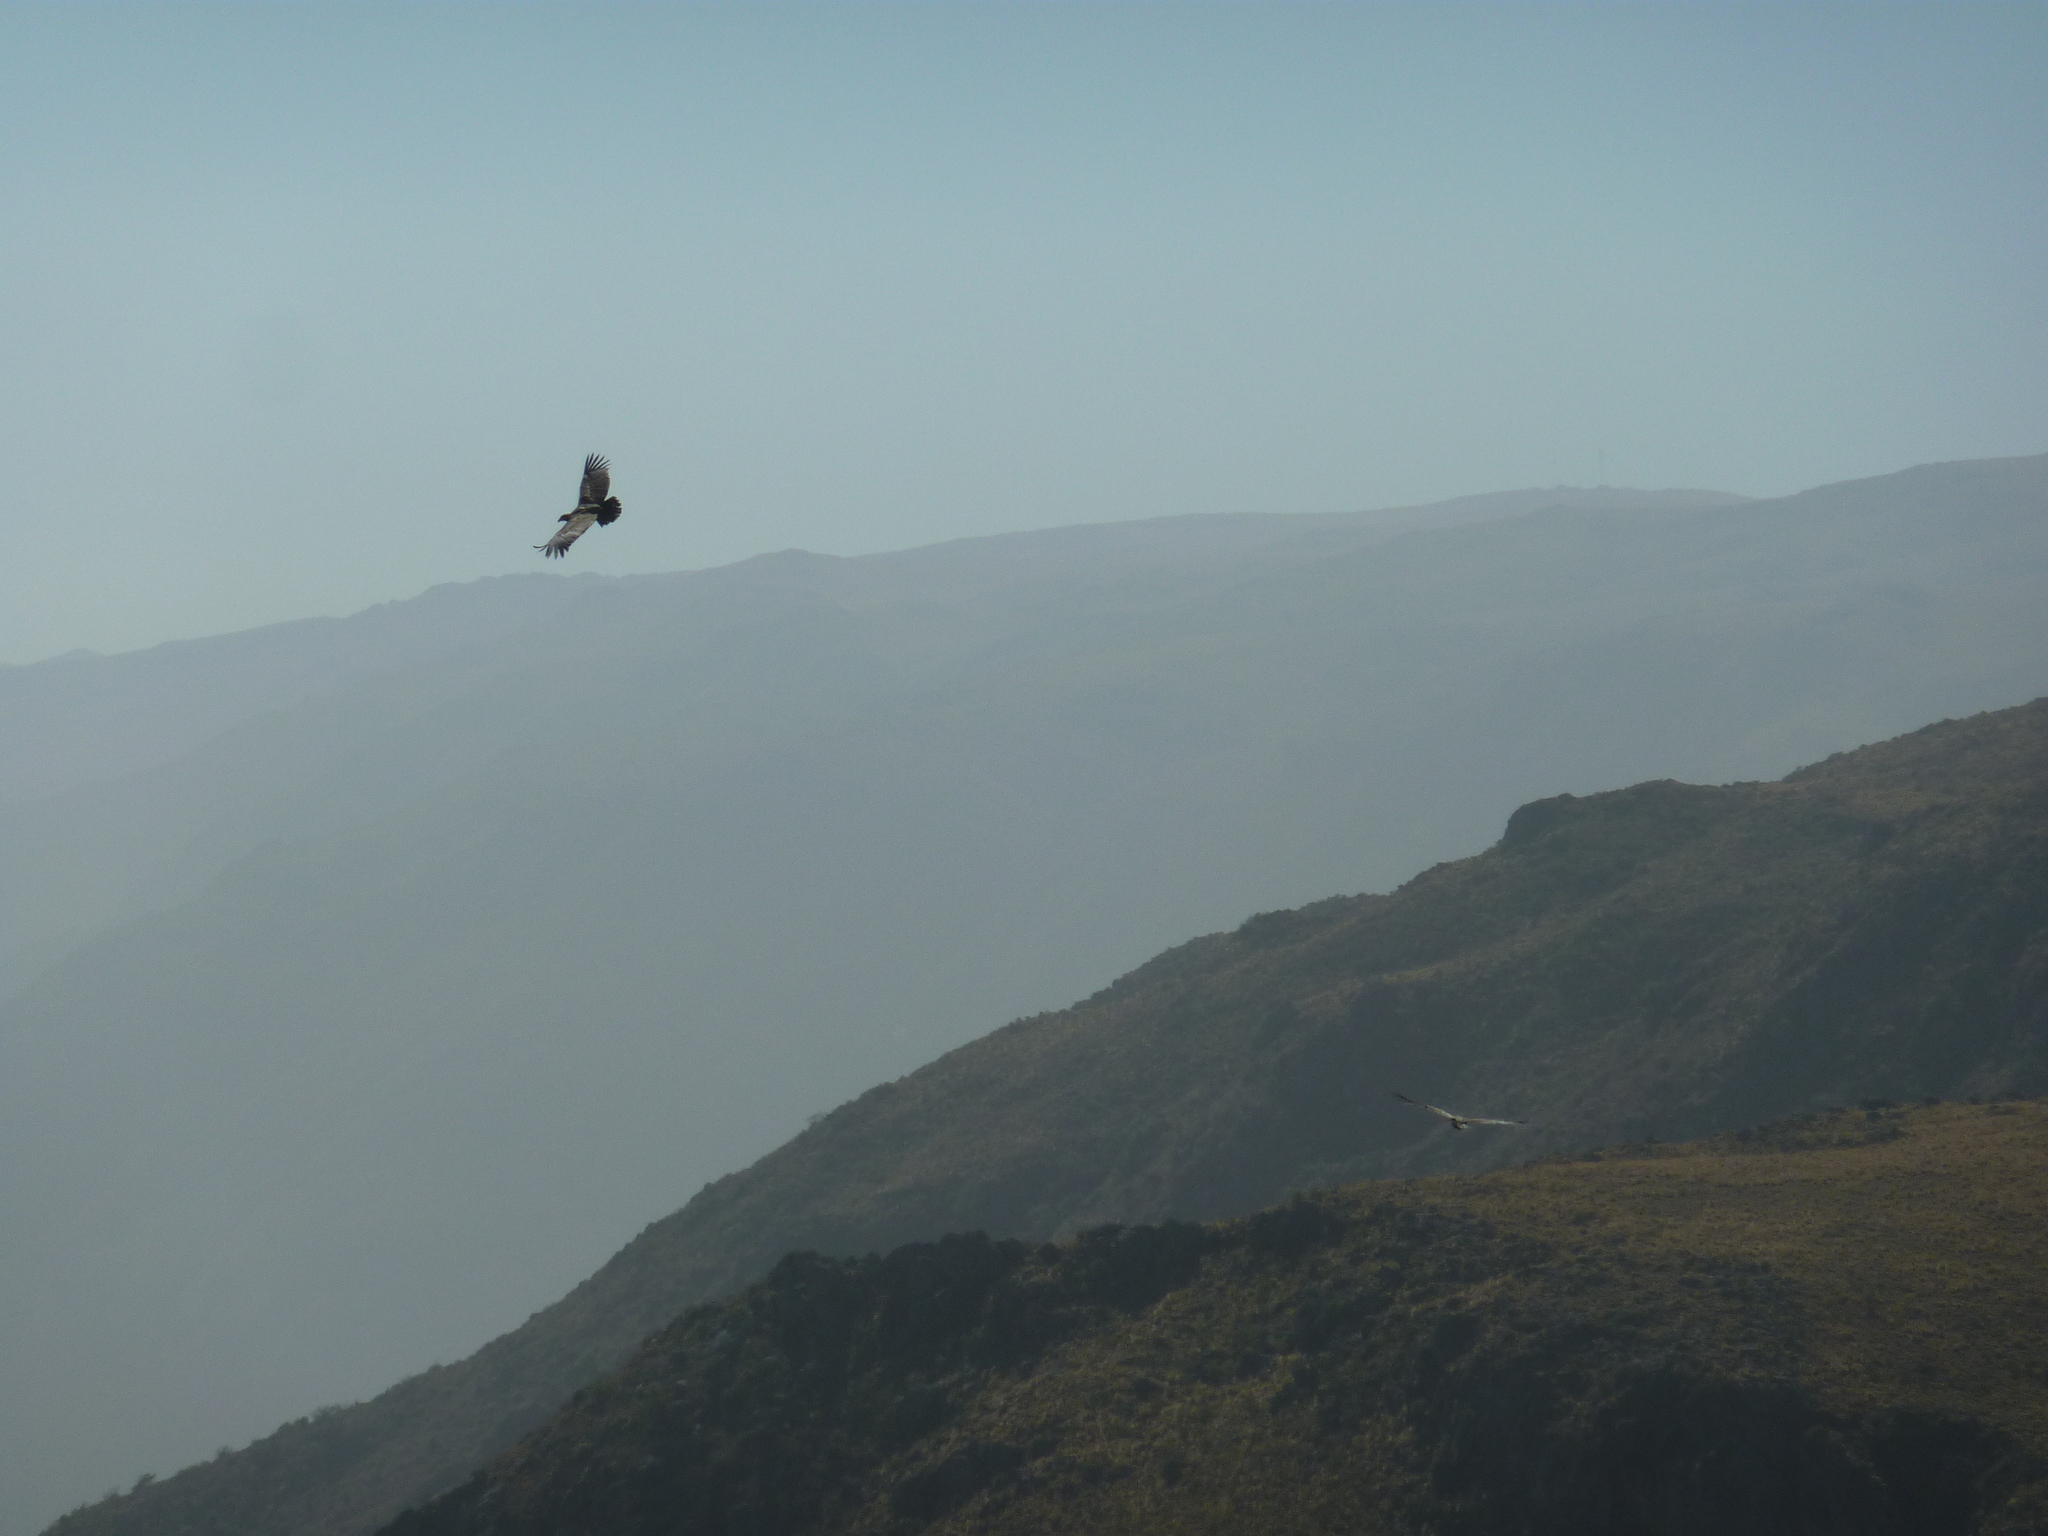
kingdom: Animalia
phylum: Chordata
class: Aves
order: Accipitriformes
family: Cathartidae
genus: Vultur
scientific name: Vultur gryphus
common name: Andean condor
